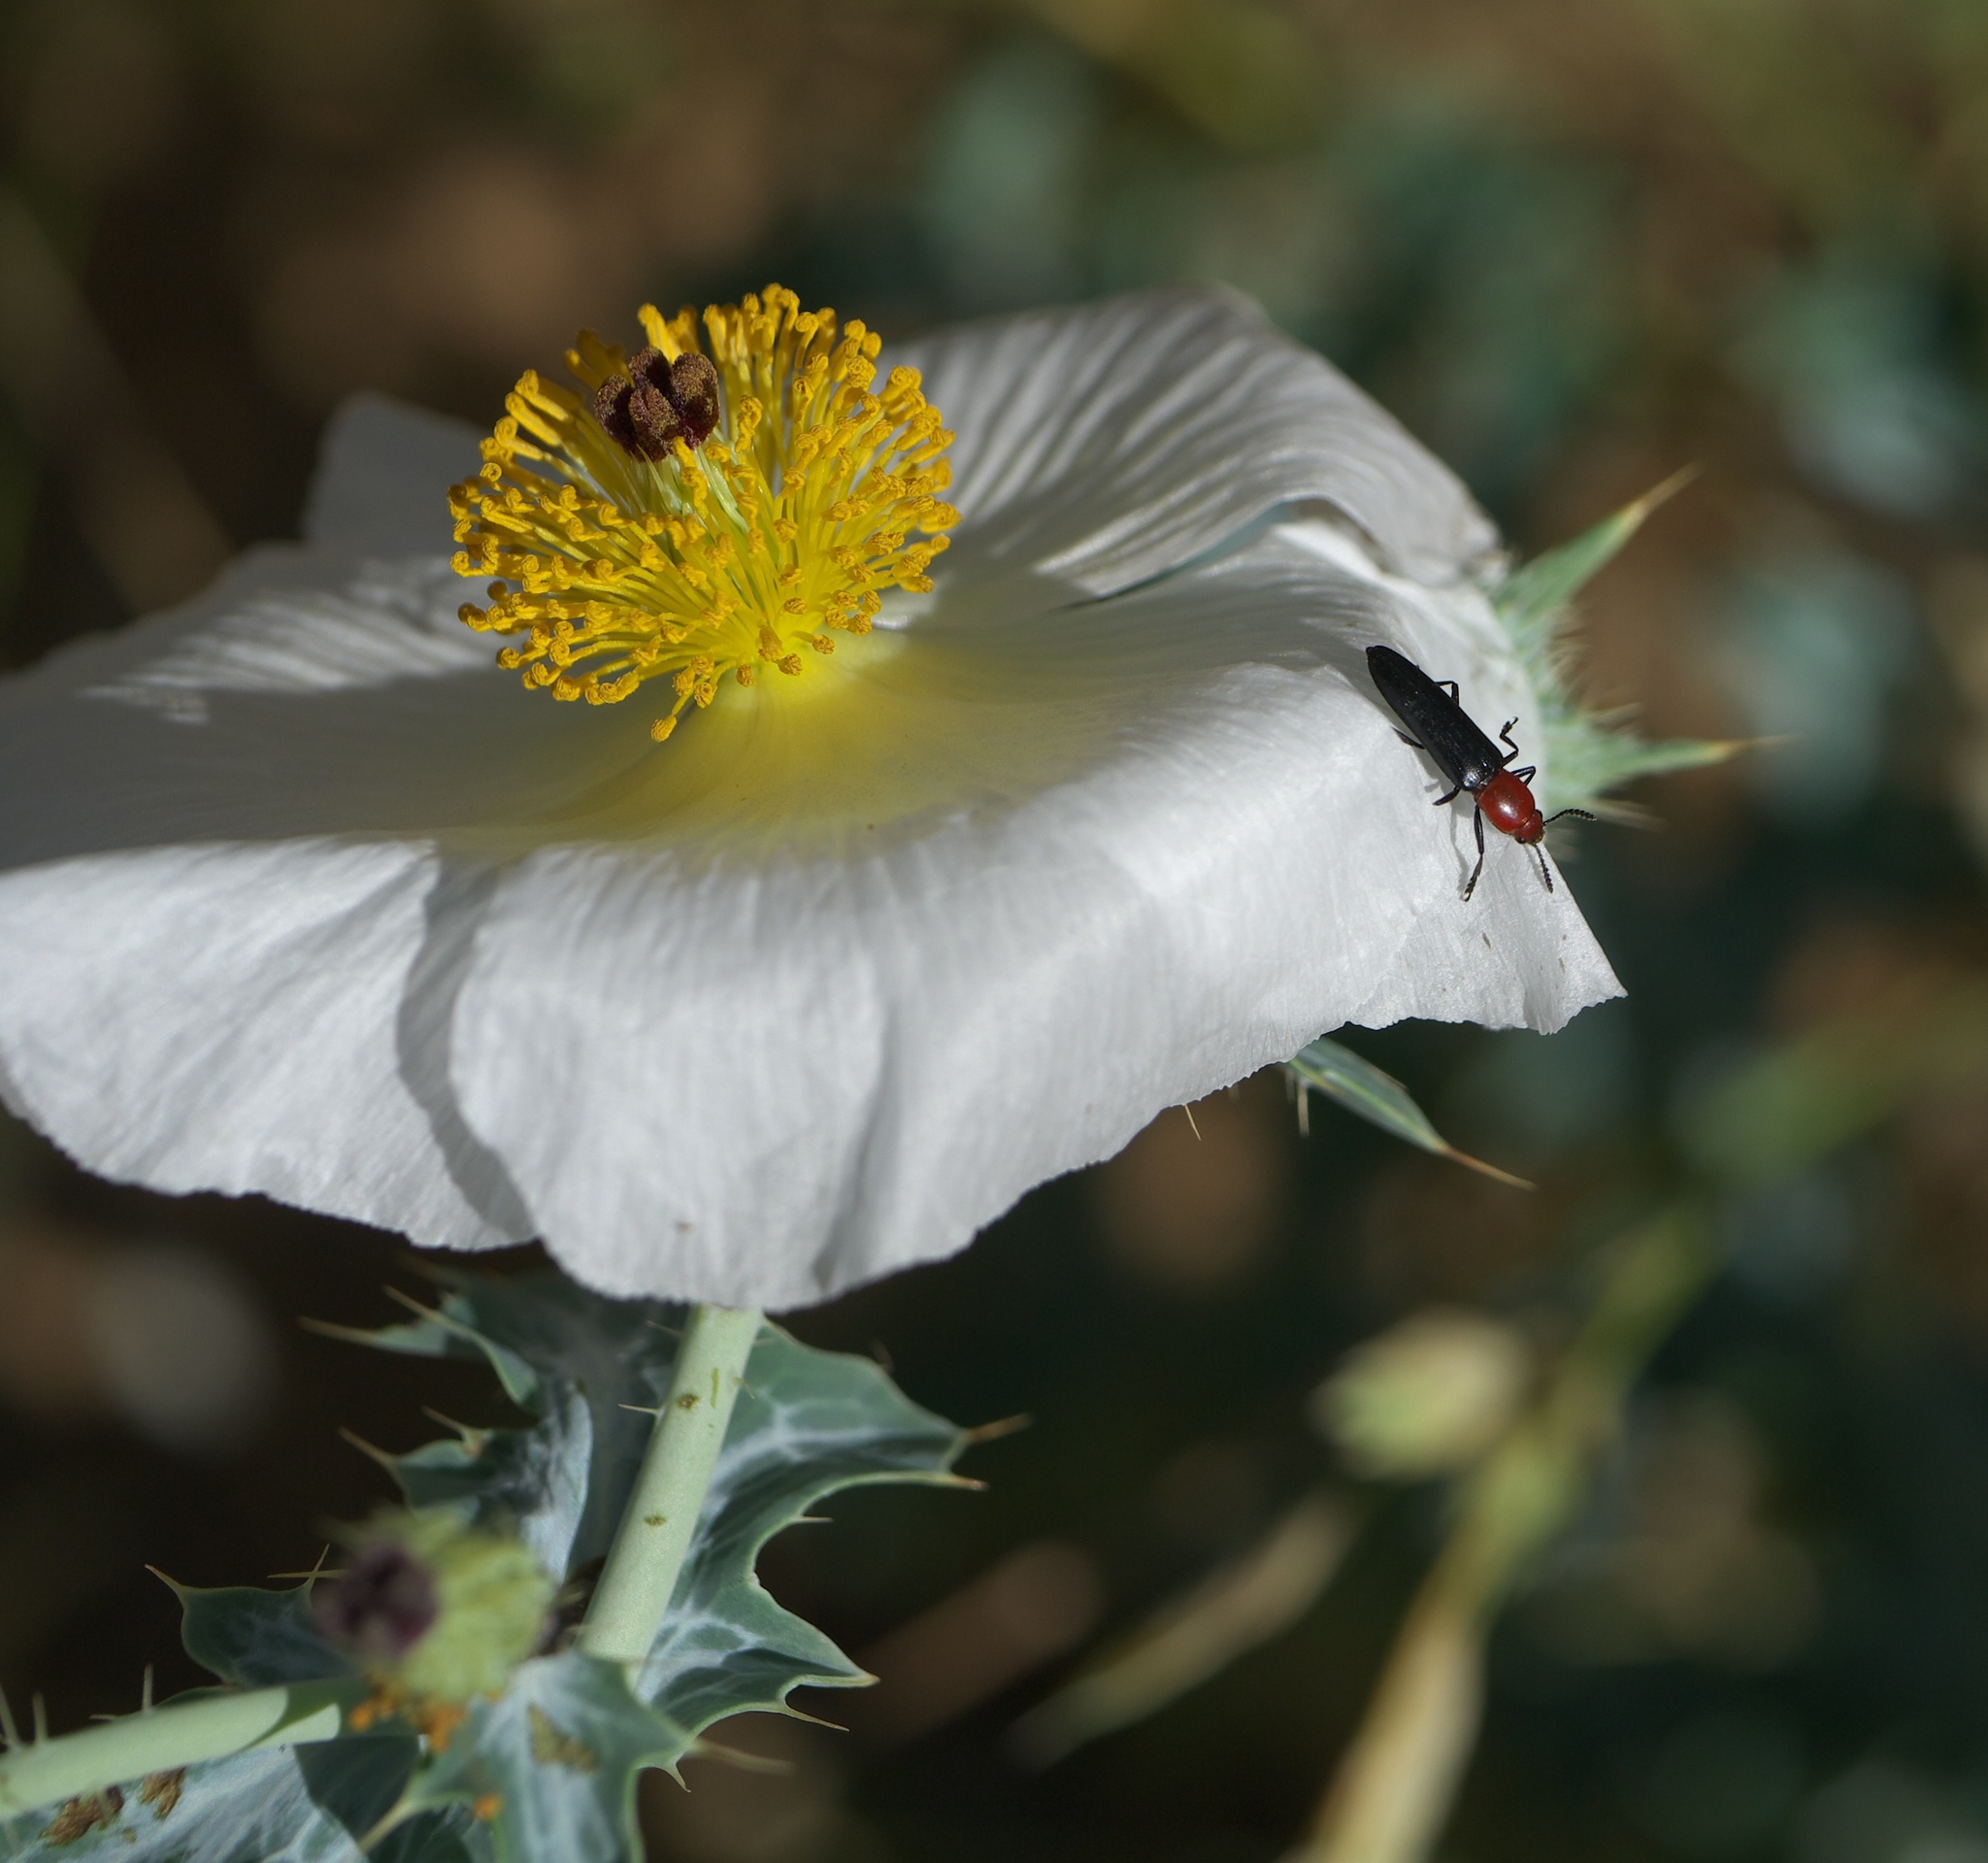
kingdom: Plantae
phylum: Tracheophyta
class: Magnoliopsida
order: Ranunculales
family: Papaveraceae
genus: Argemone
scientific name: Argemone polyanthemos
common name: Plains prickly-poppy
